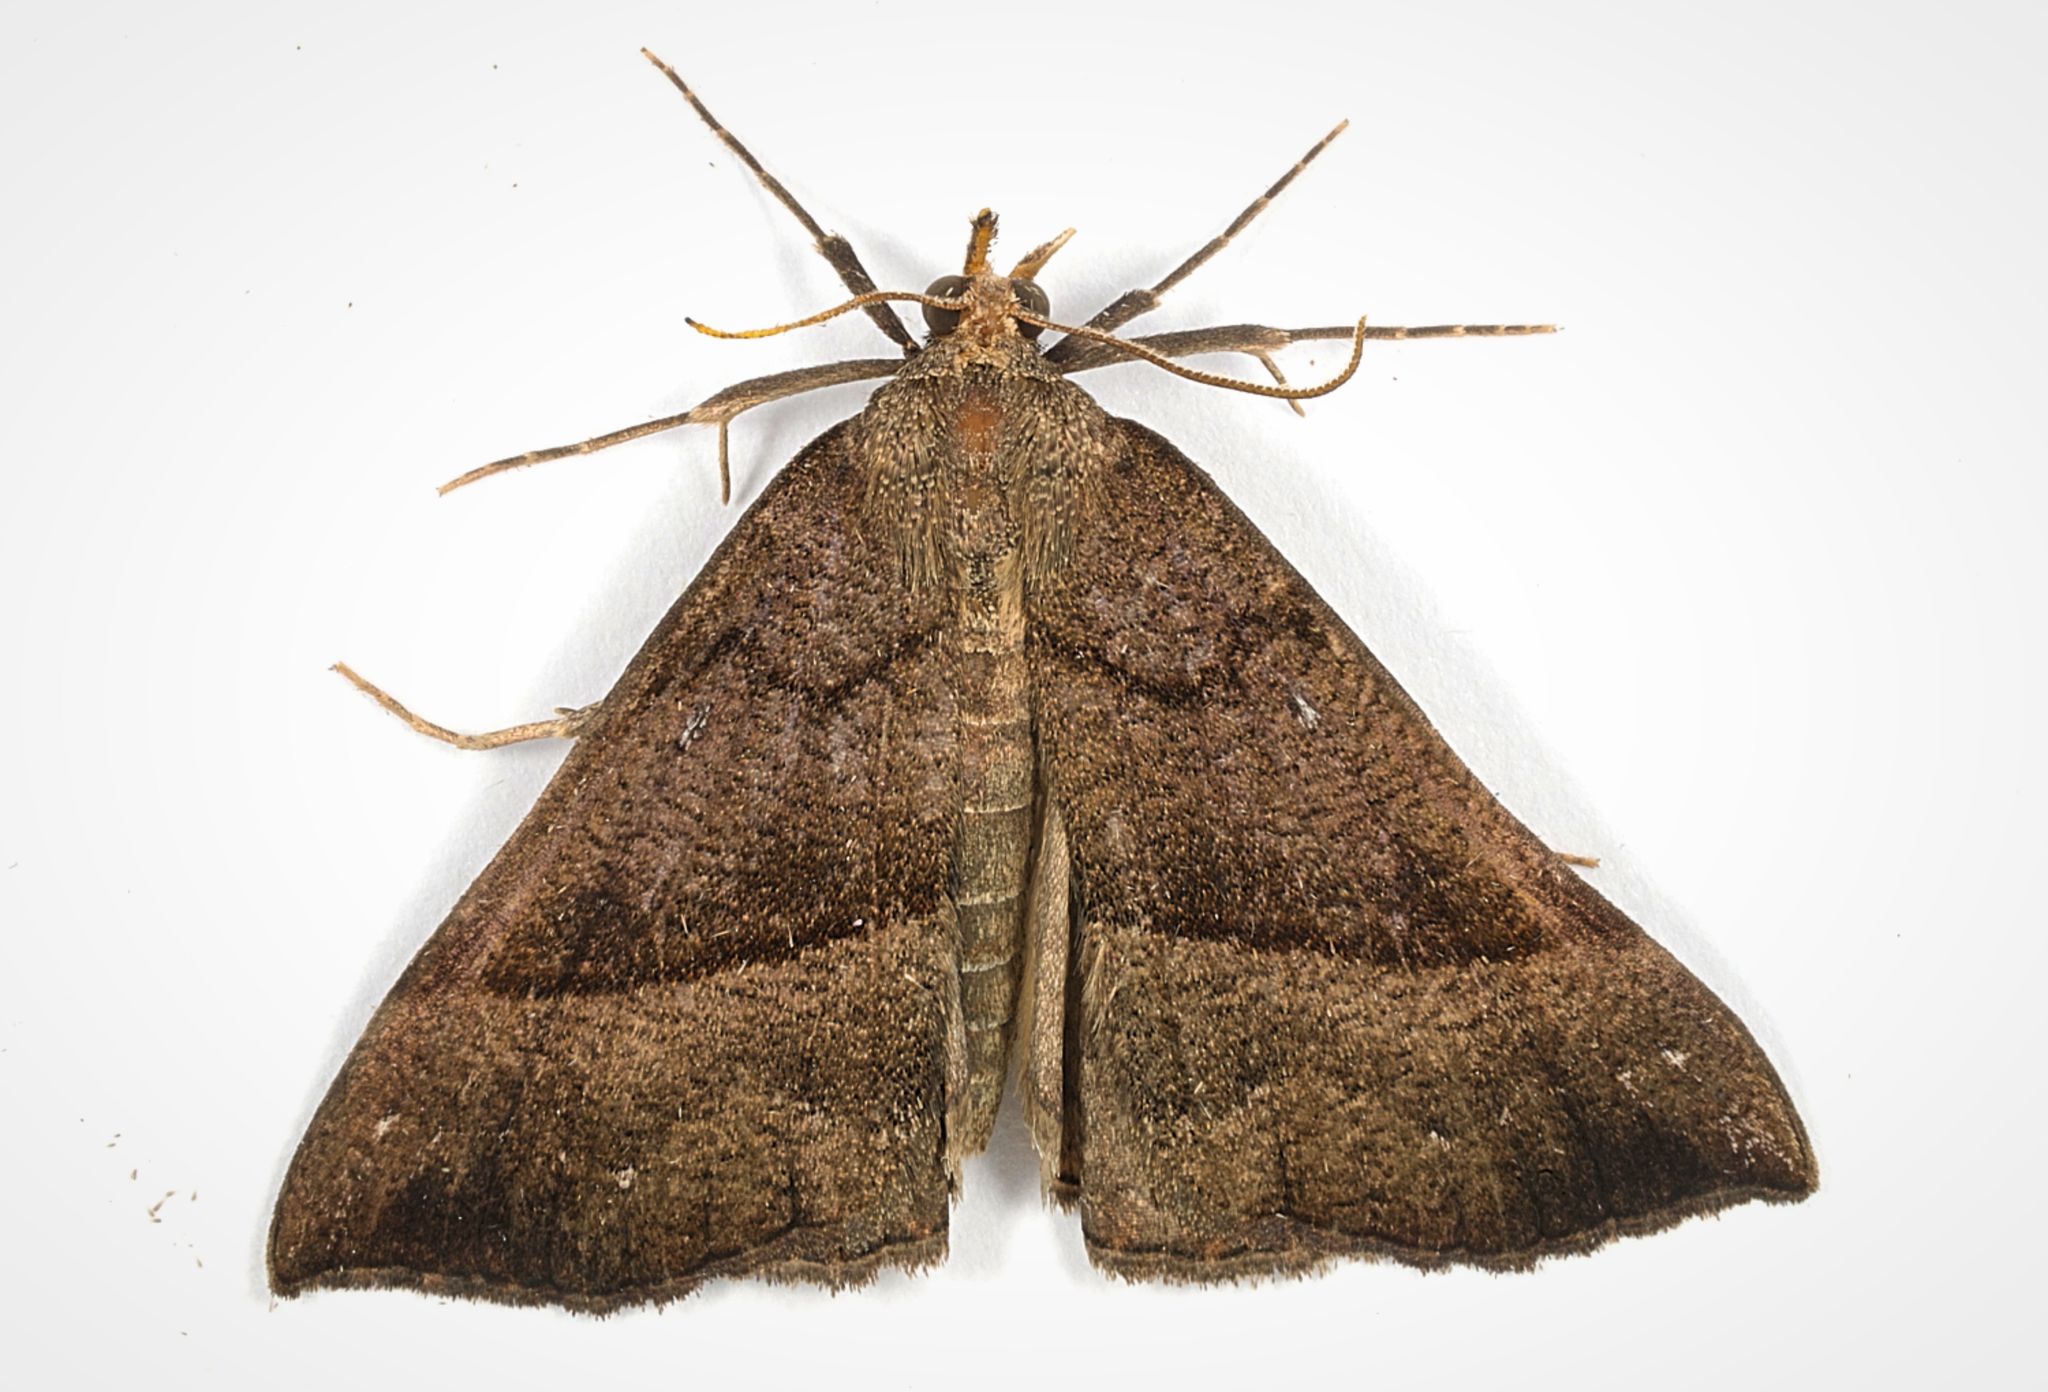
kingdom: Animalia
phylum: Arthropoda
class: Insecta
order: Lepidoptera
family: Erebidae
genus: Hypena
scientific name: Hypena proboscidalis
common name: Snout
